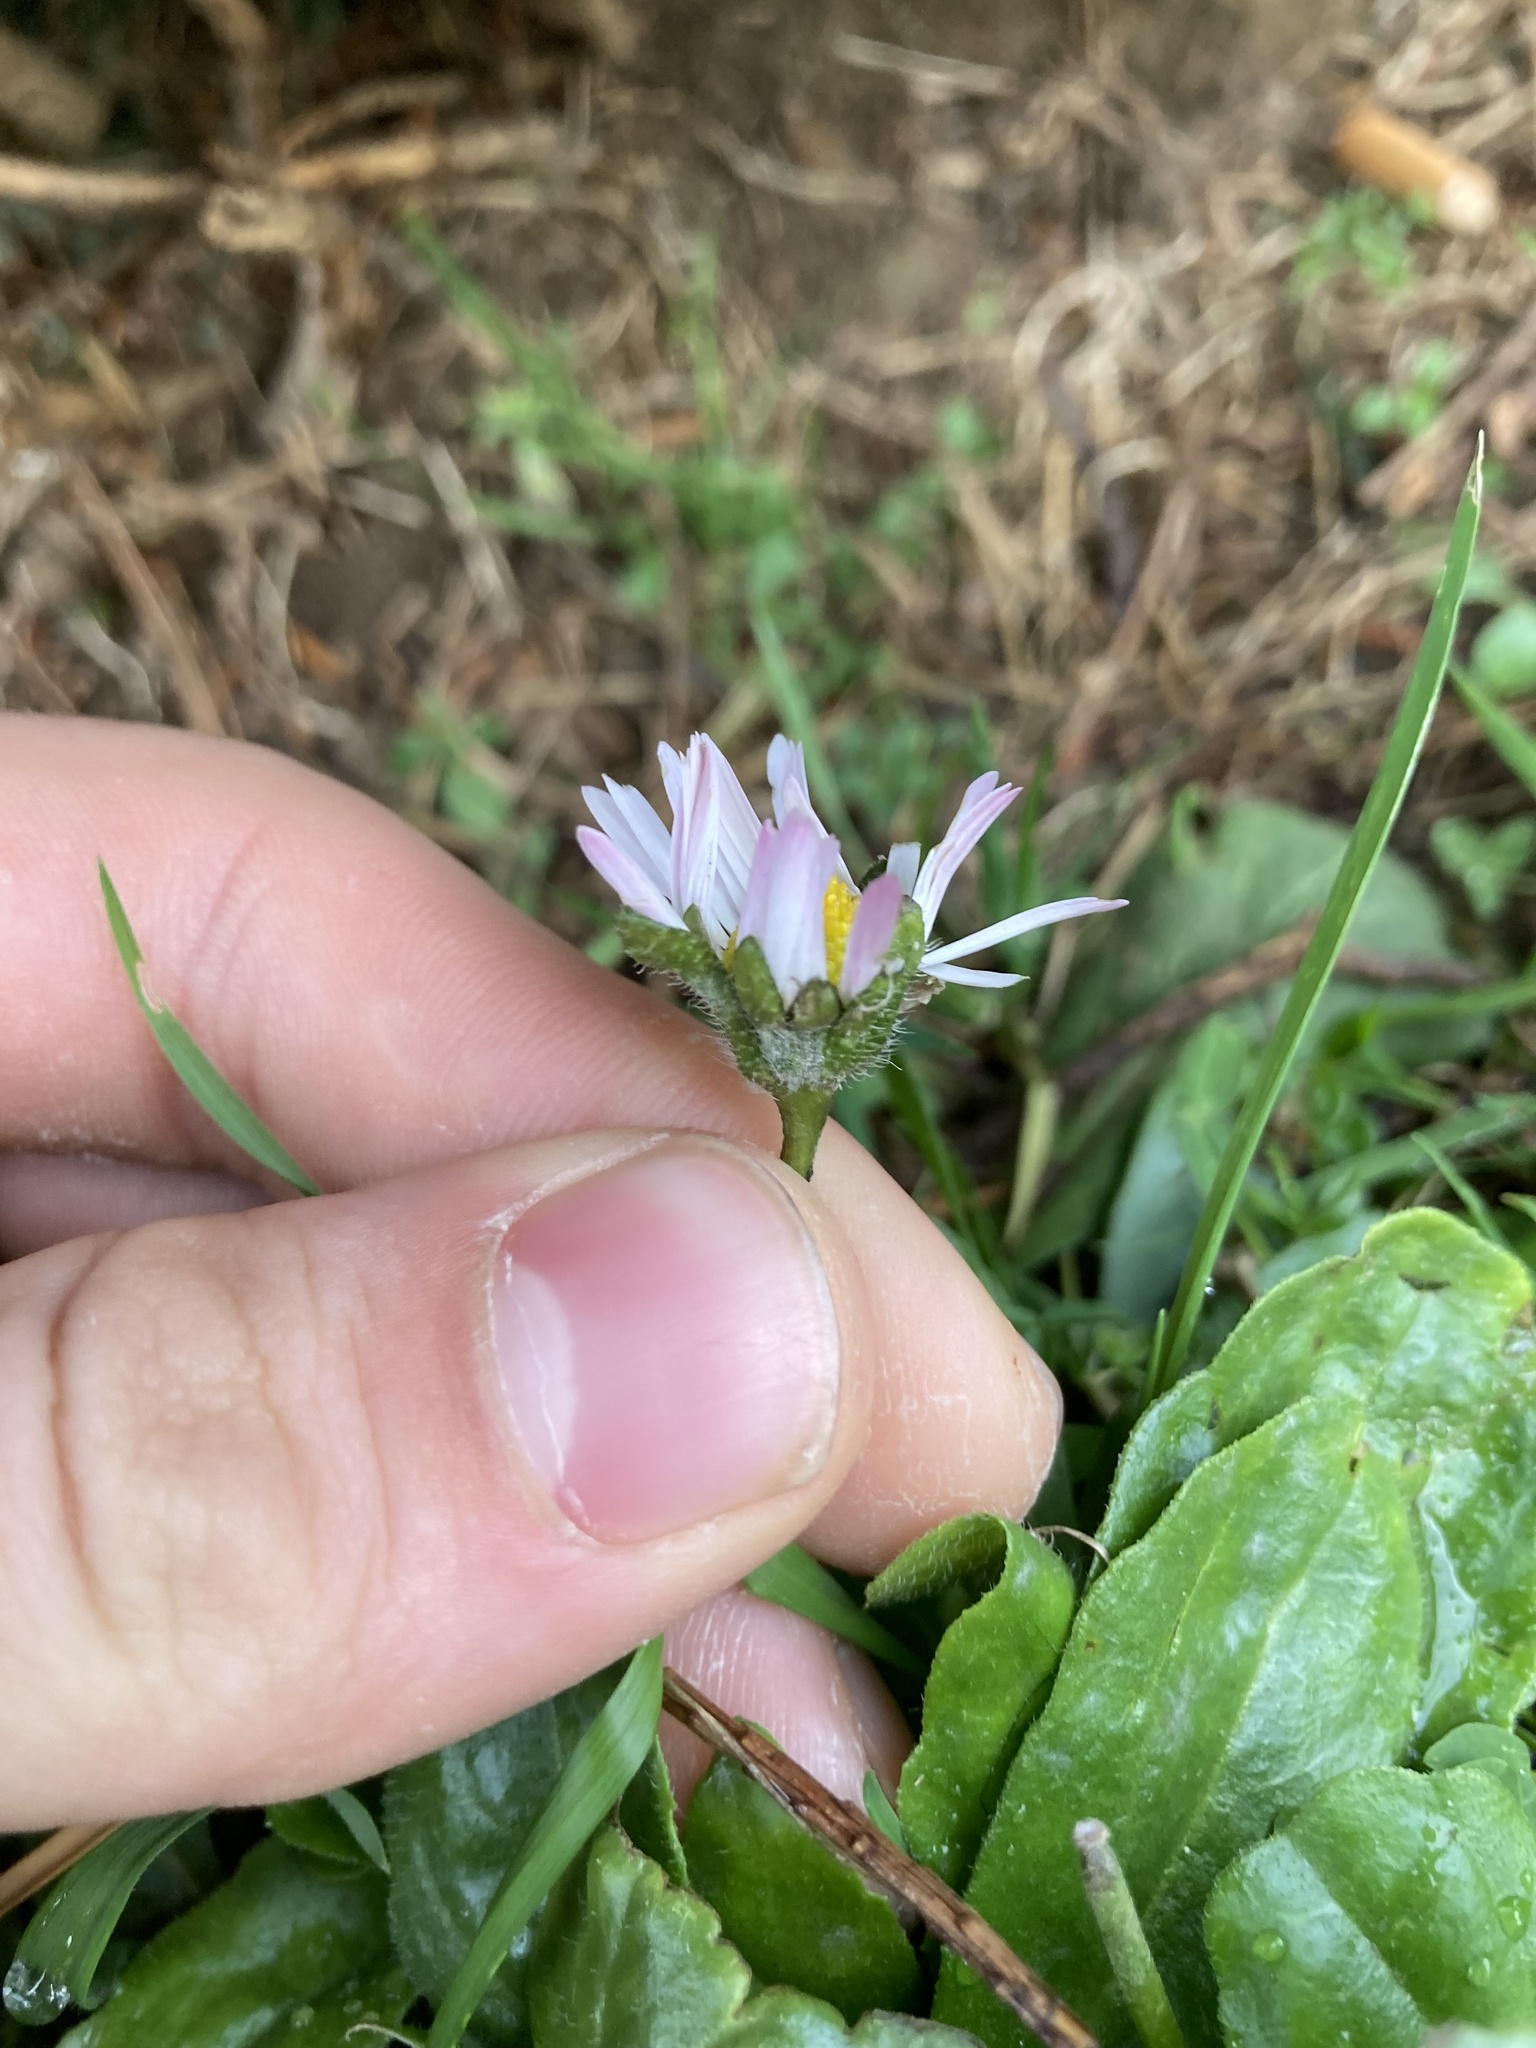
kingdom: Plantae
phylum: Tracheophyta
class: Magnoliopsida
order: Asterales
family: Asteraceae
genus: Bellis
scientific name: Bellis perennis
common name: Lawndaisy
